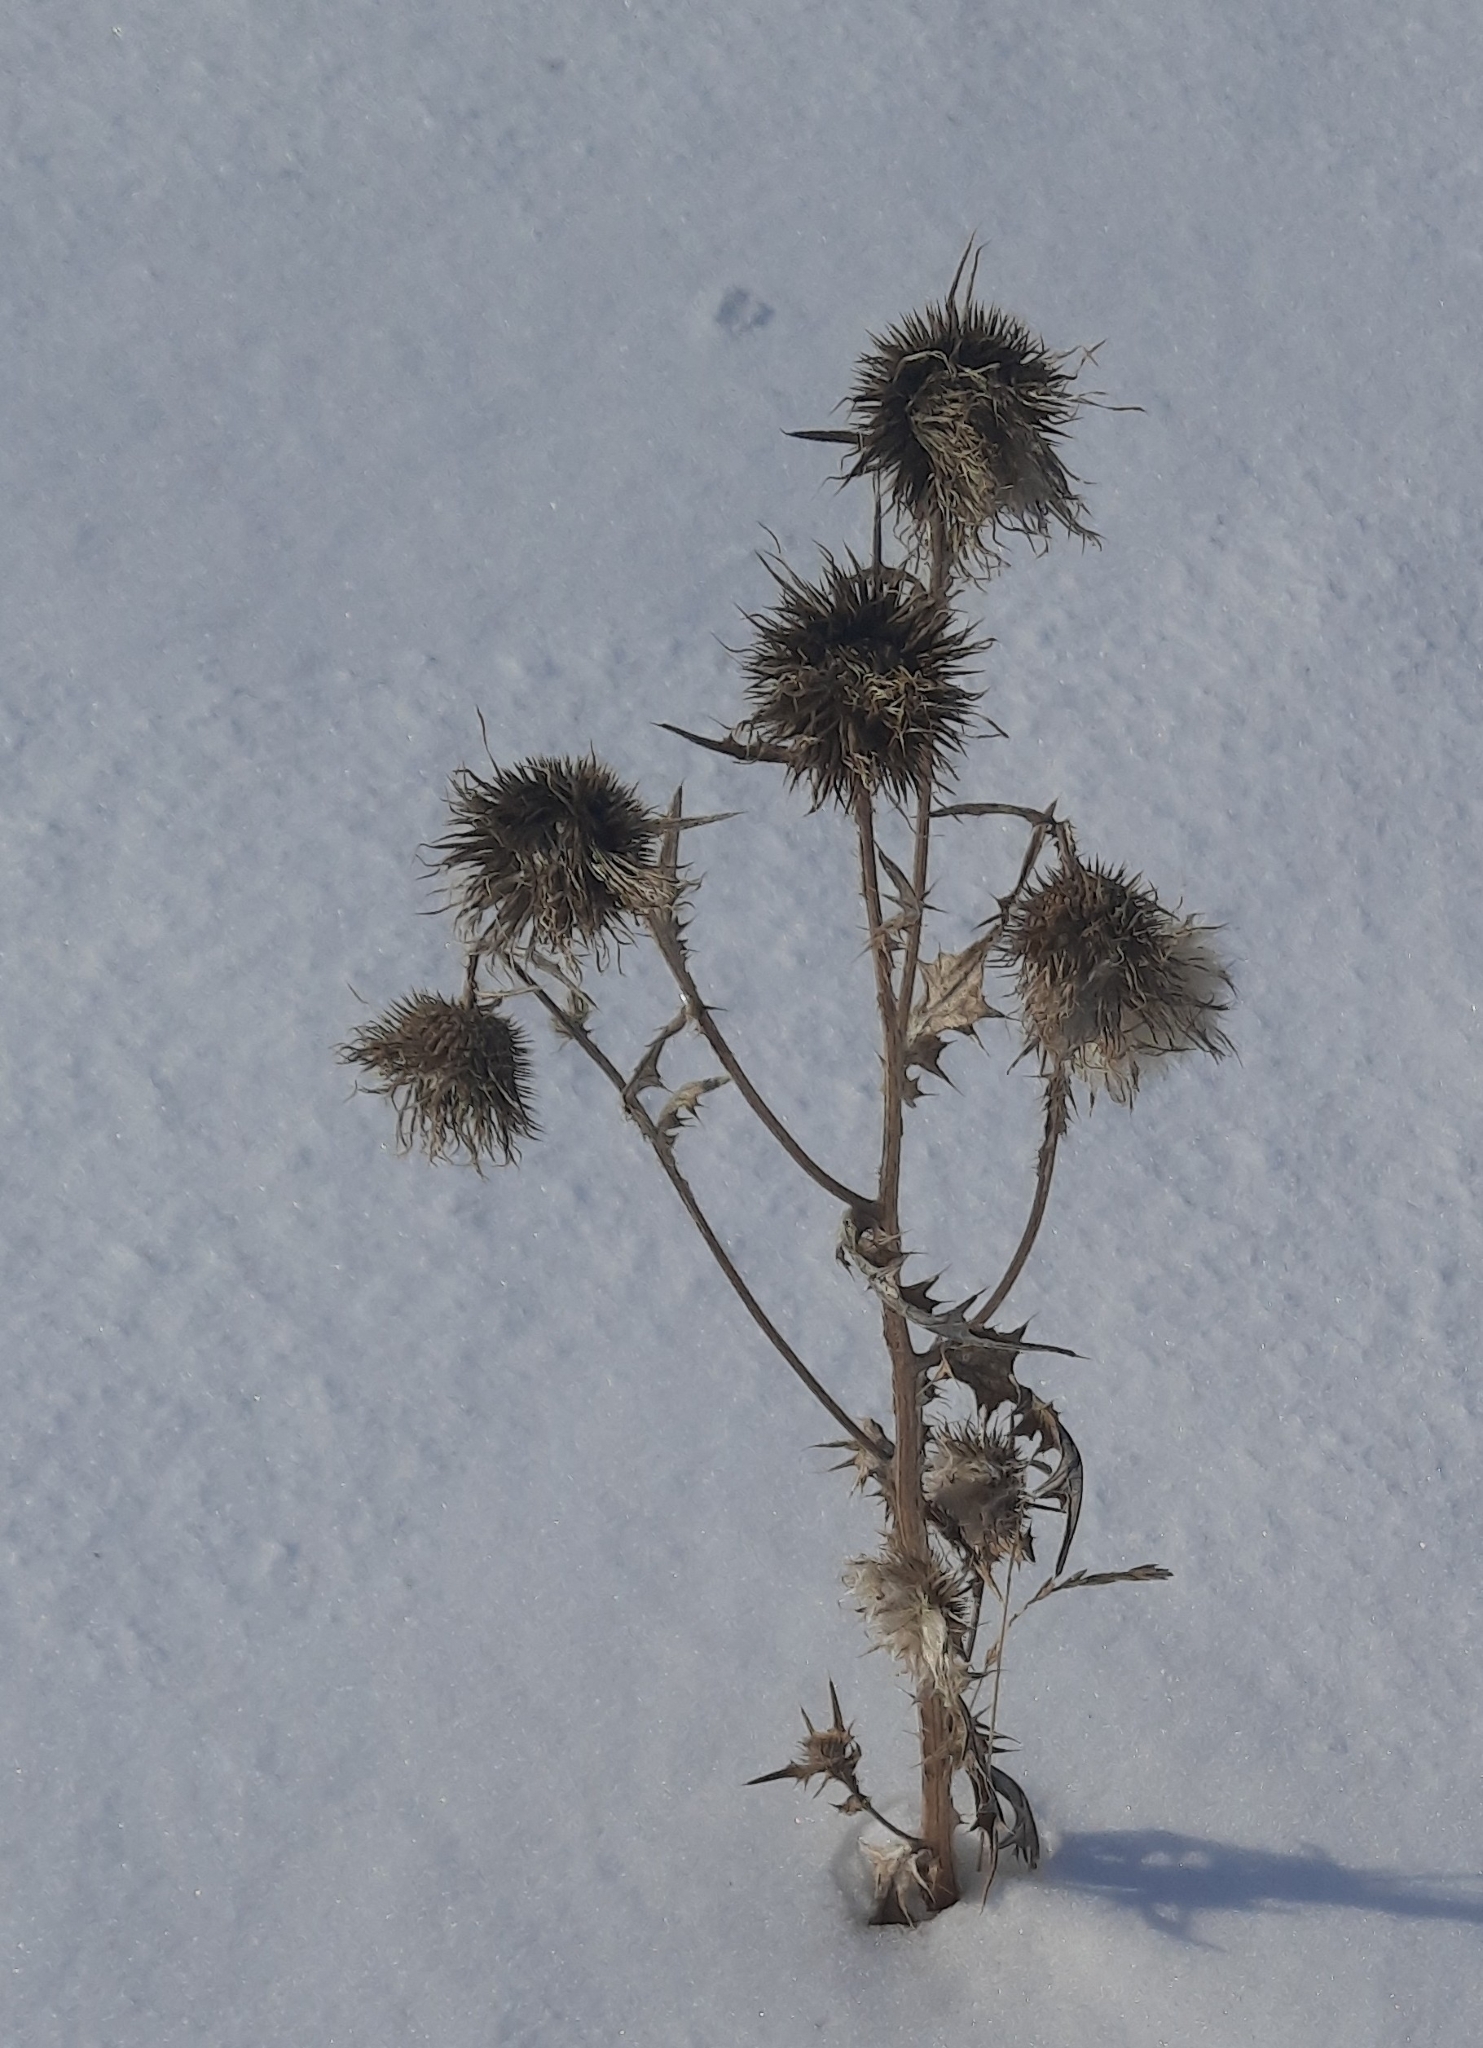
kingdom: Plantae
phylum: Tracheophyta
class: Magnoliopsida
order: Asterales
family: Asteraceae
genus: Cirsium
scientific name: Cirsium vulgare
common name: Bull thistle
